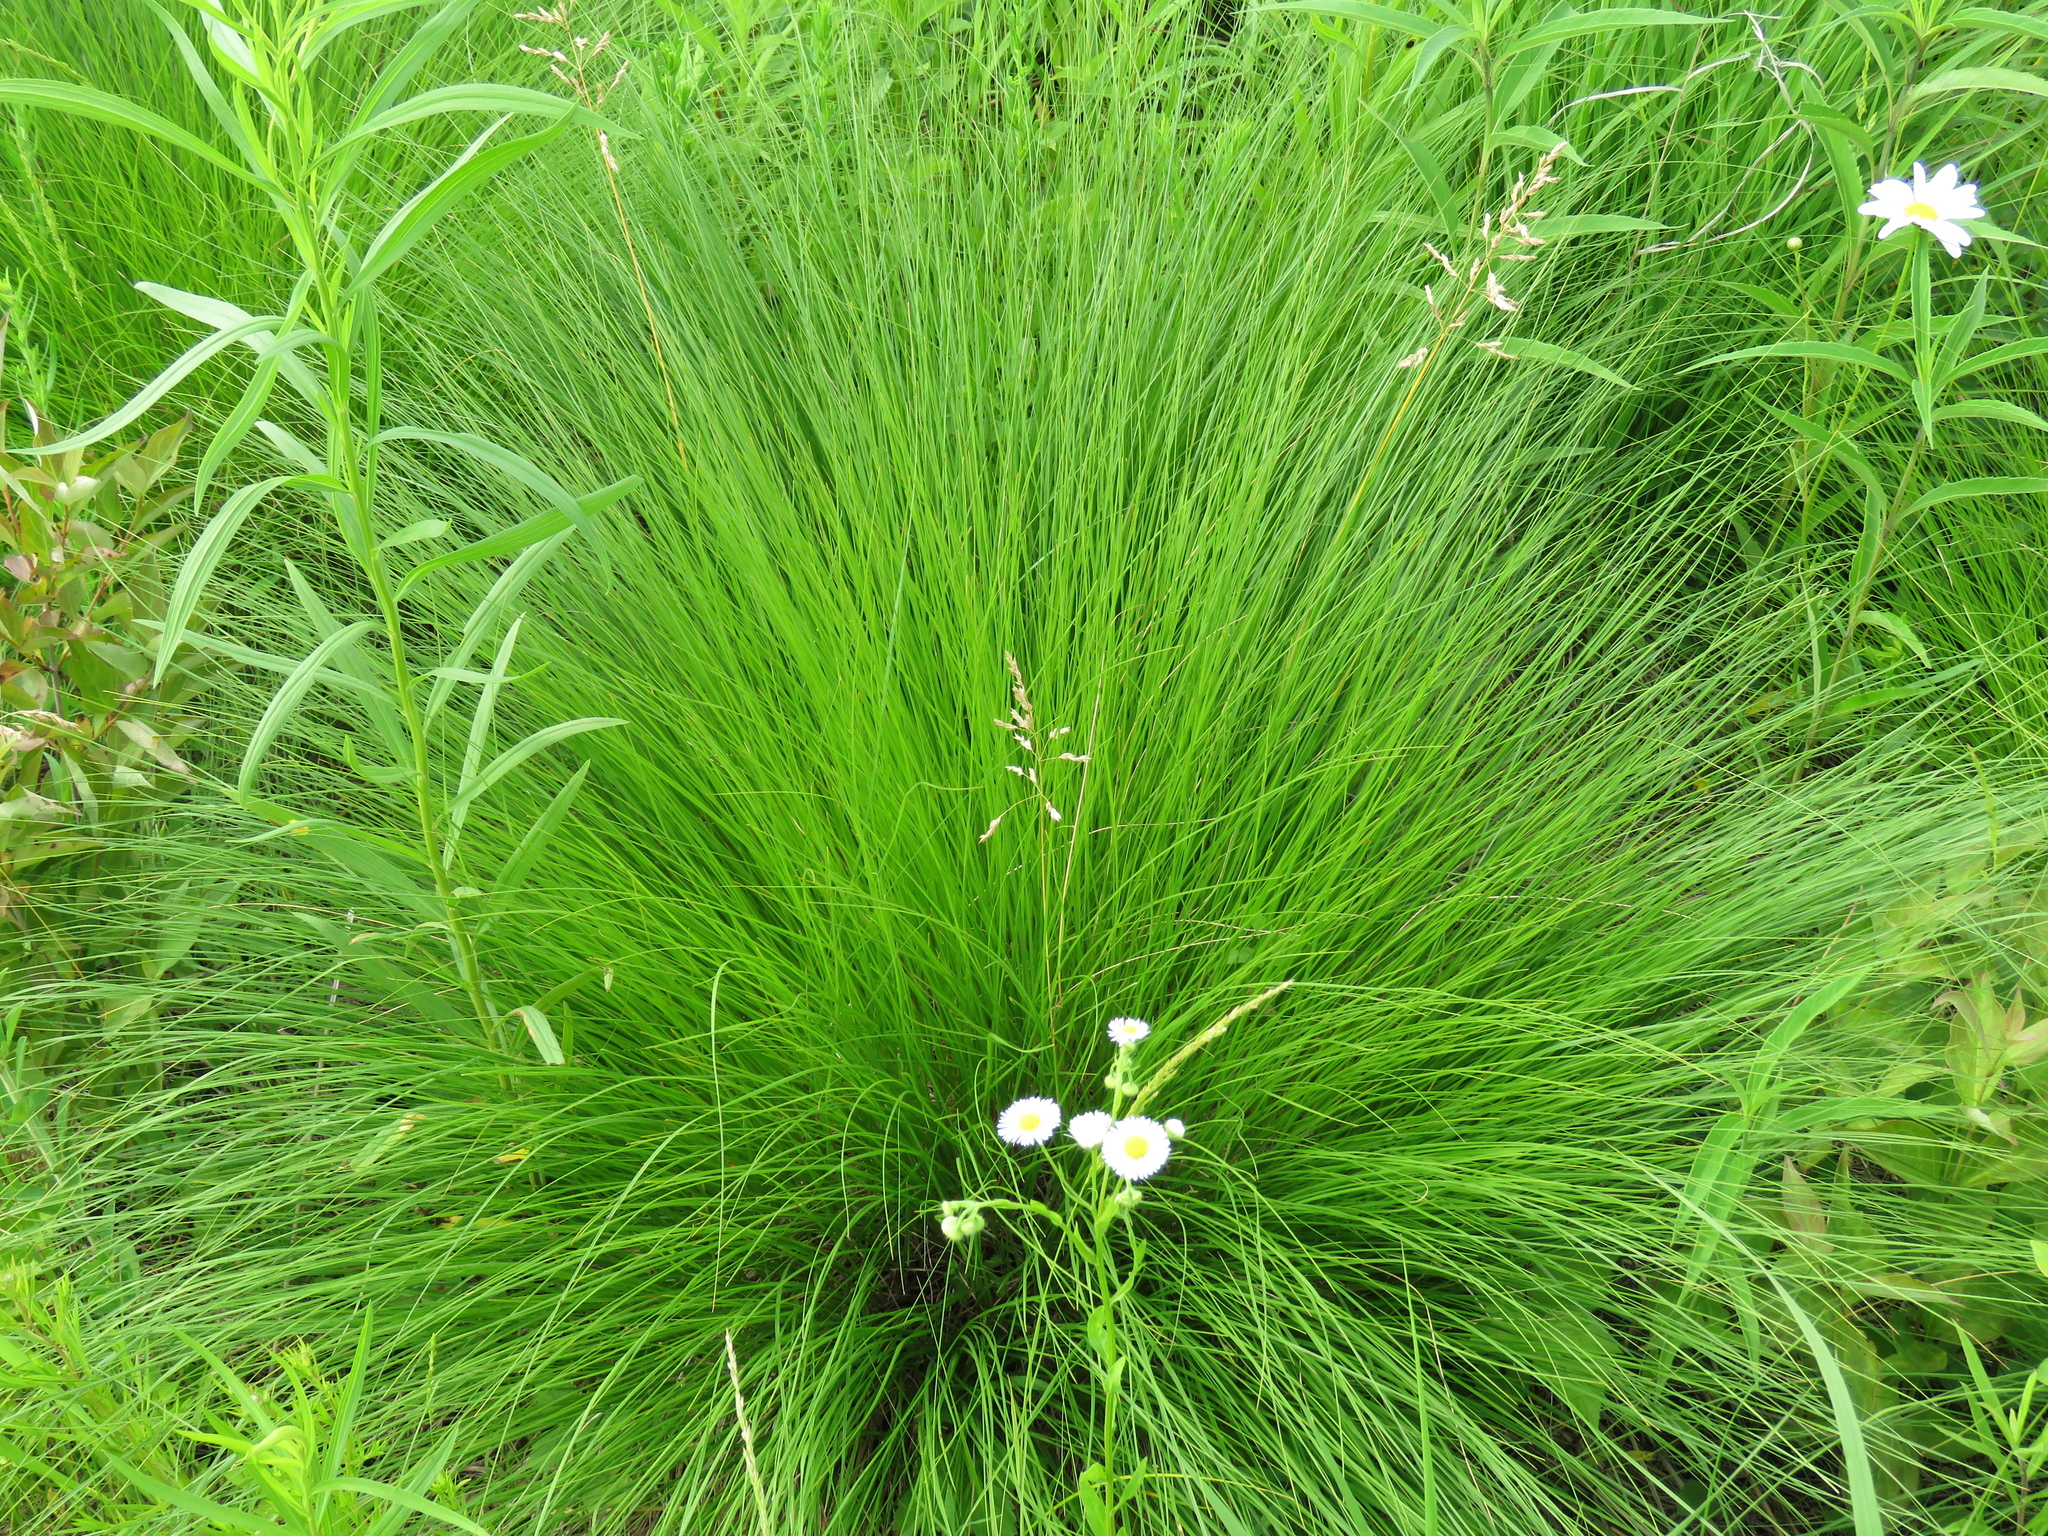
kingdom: Plantae
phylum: Tracheophyta
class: Liliopsida
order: Poales
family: Poaceae
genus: Sporobolus
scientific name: Sporobolus heterolepis
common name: Prairie dropseed
